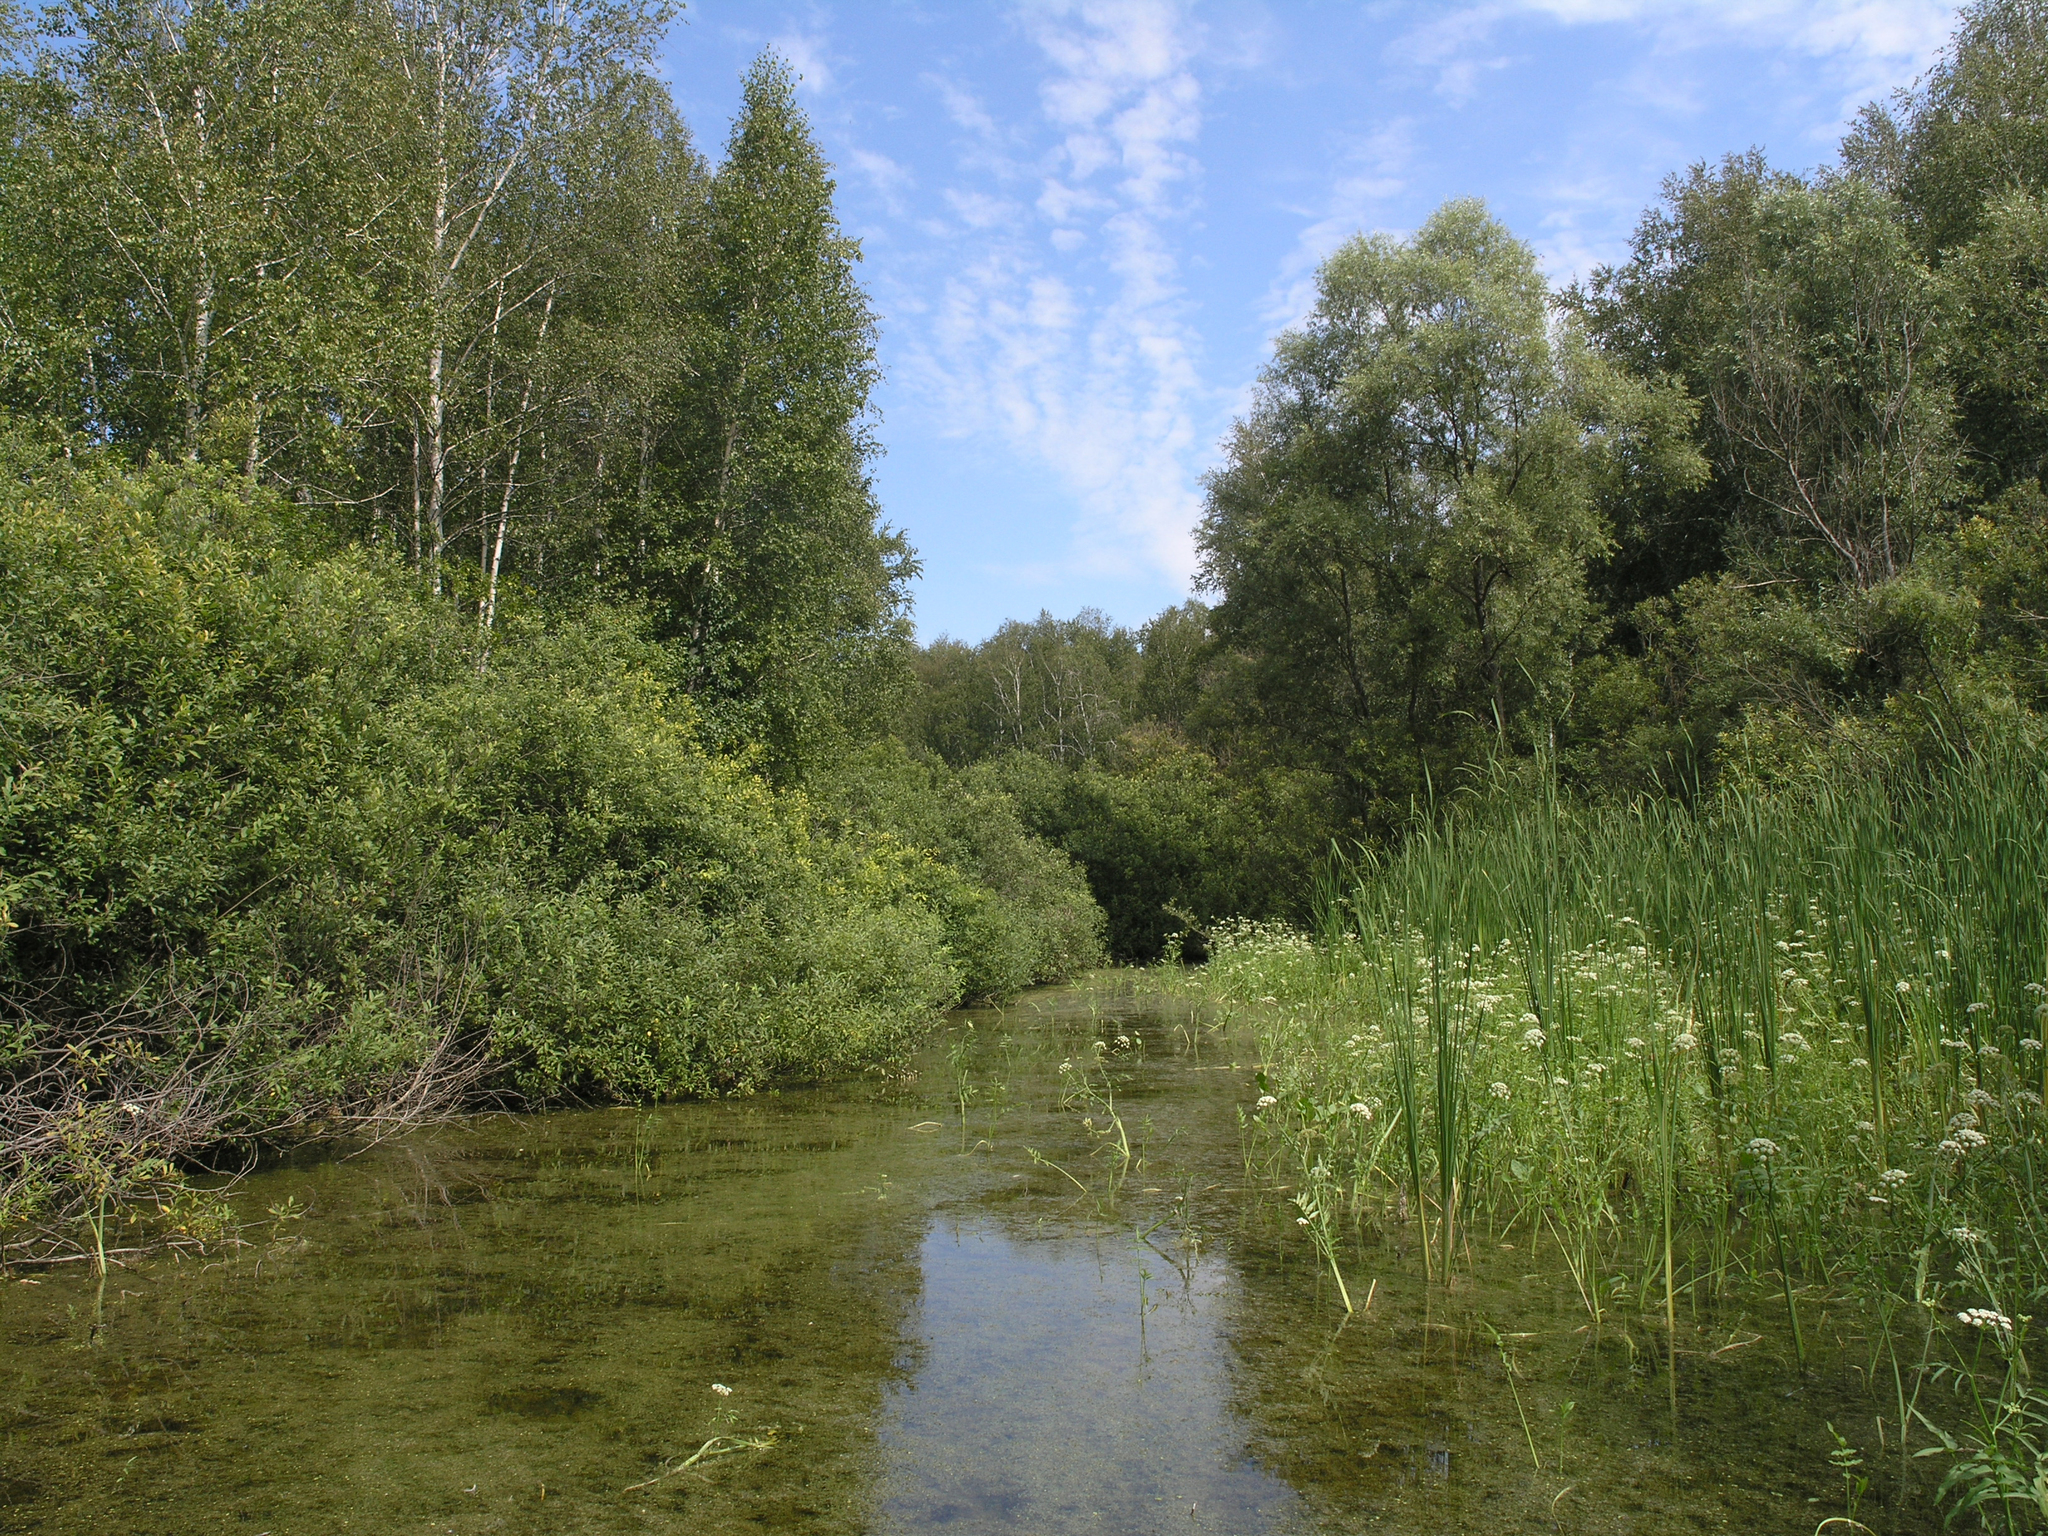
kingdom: Plantae
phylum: Tracheophyta
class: Magnoliopsida
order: Apiales
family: Apiaceae
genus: Sium
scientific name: Sium latifolium
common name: Greater water-parsnip
